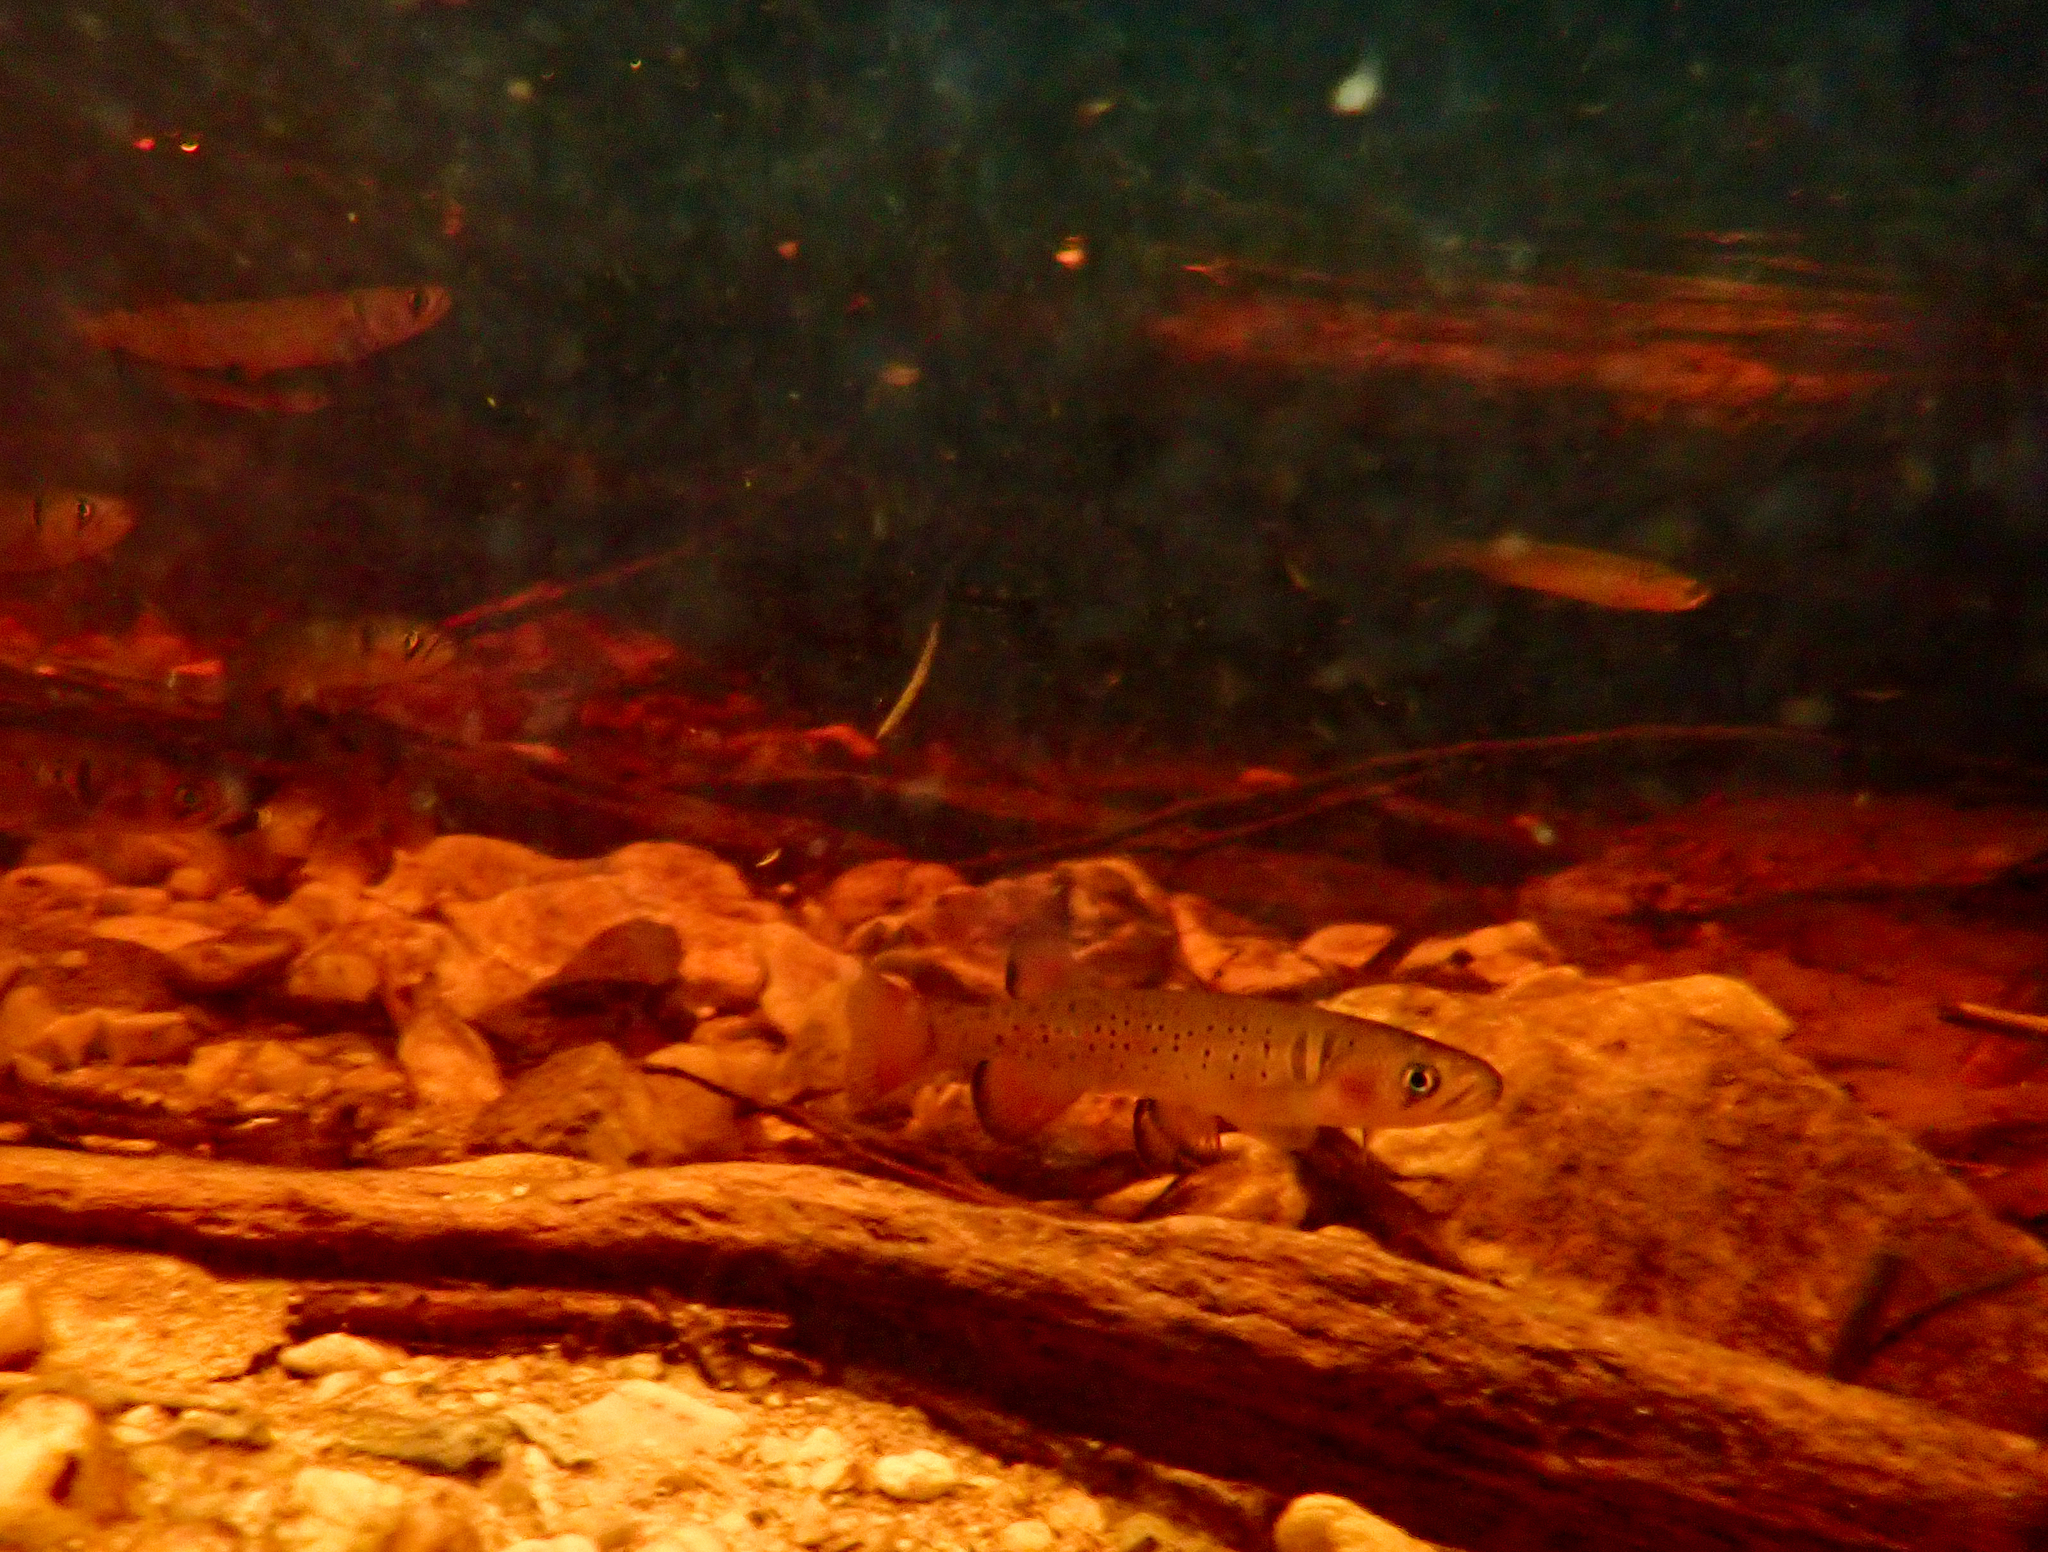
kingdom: Animalia
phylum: Chordata
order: Osmeriformes
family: Galaxiidae
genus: Galaxias
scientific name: Galaxias truttaceus
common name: Spotted galaxias
